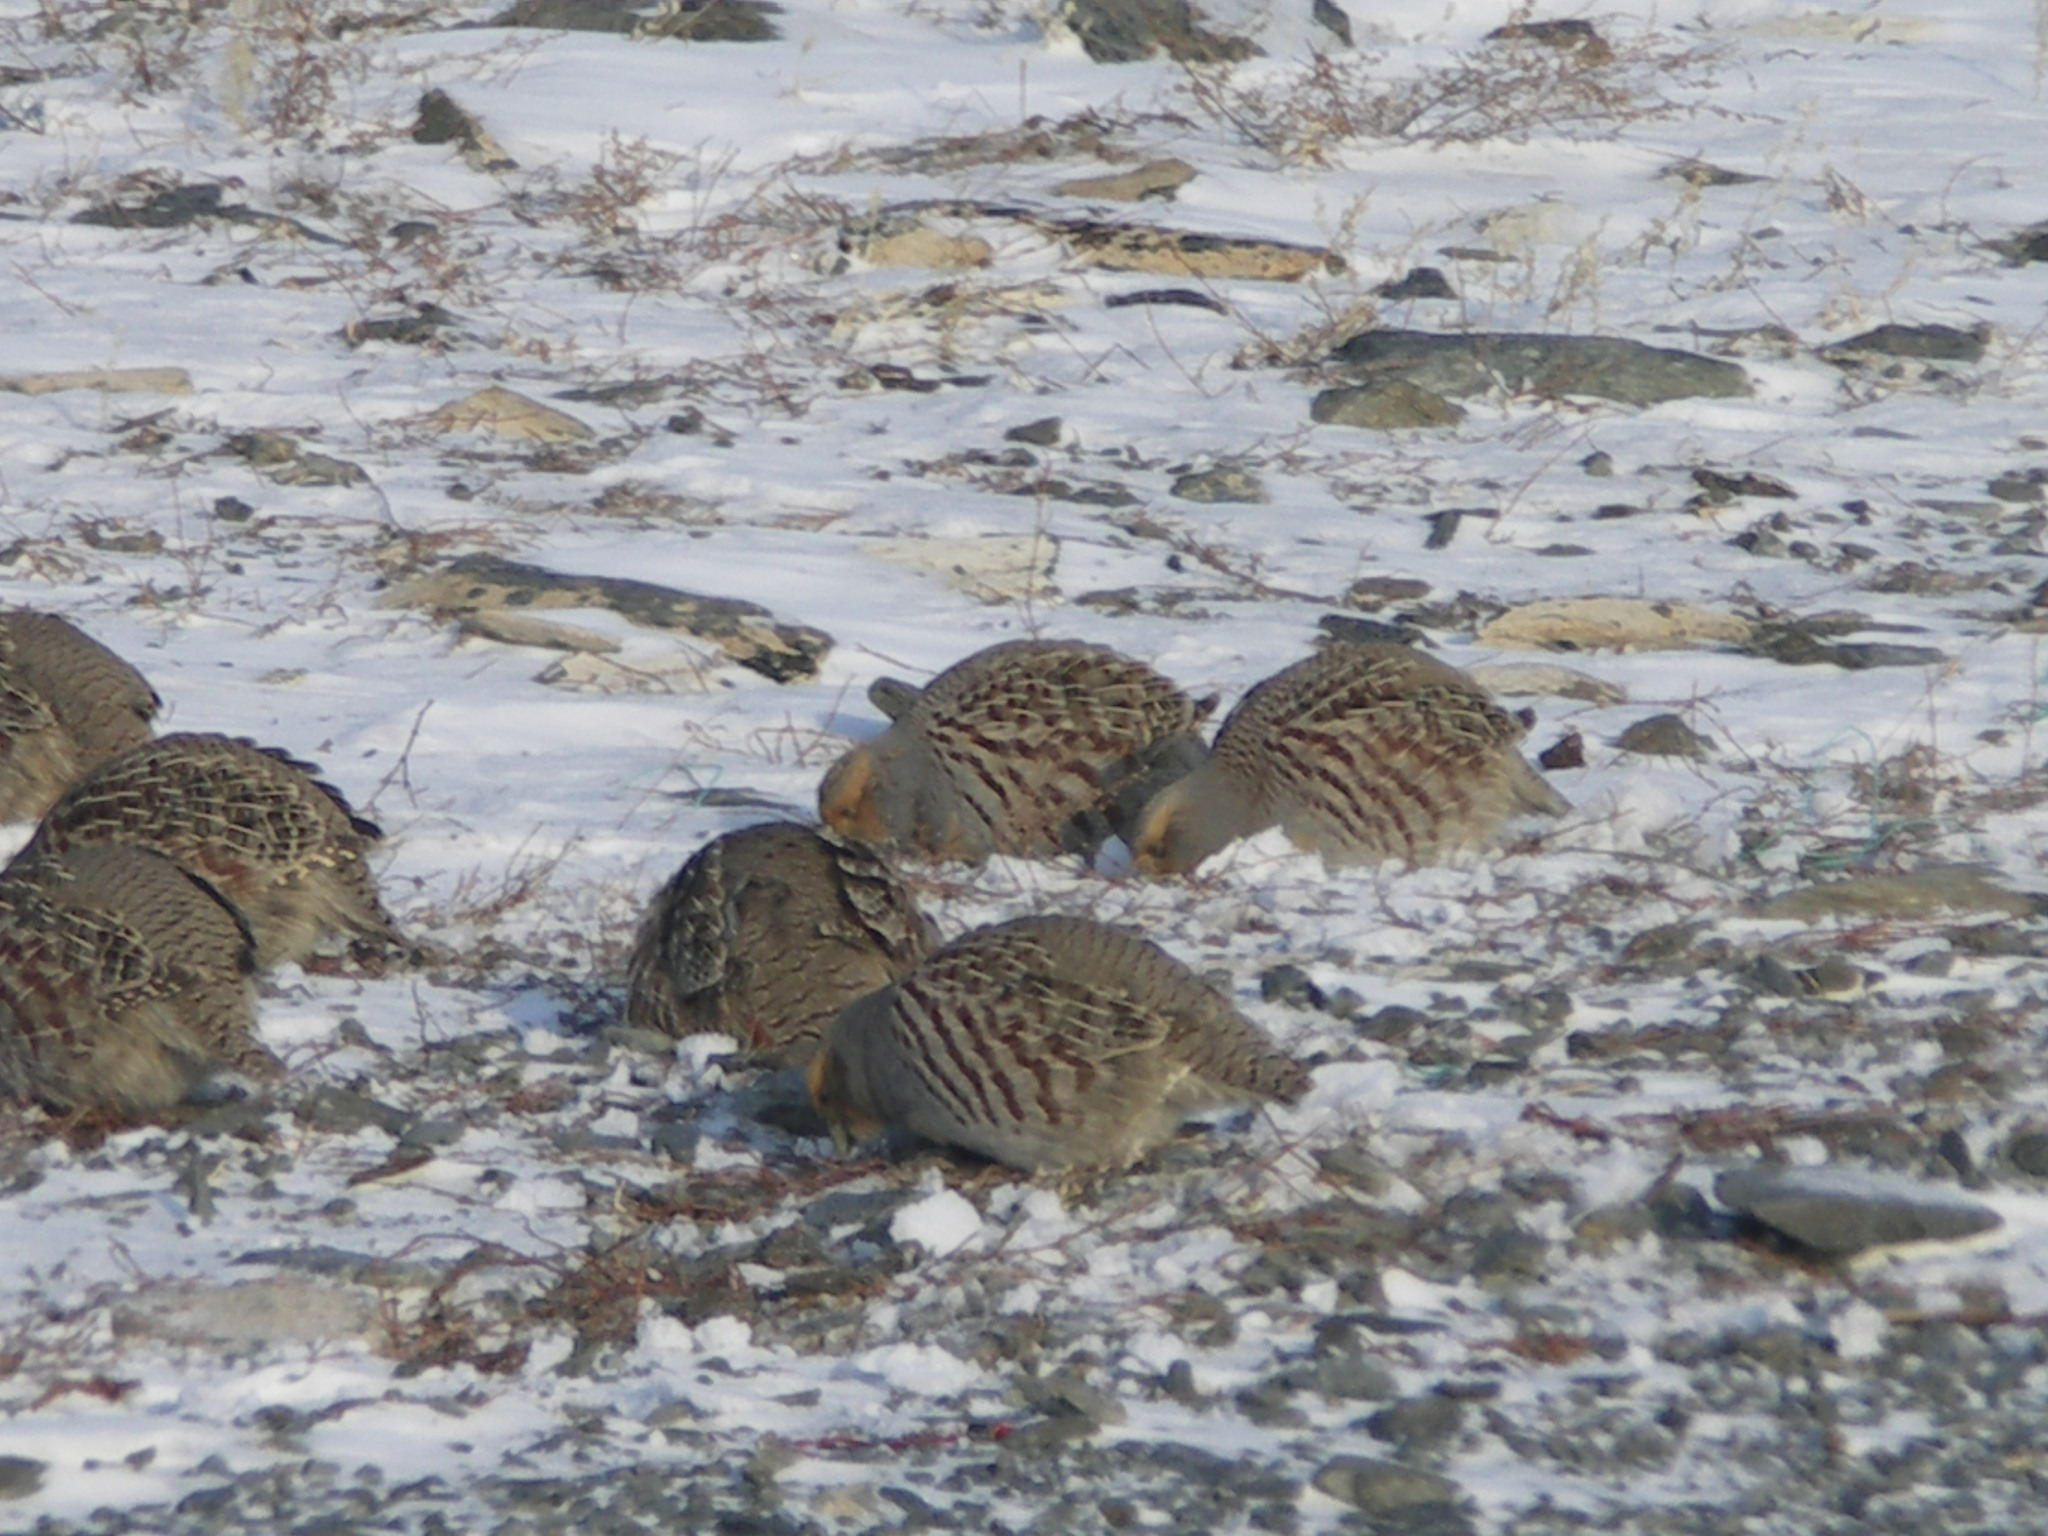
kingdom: Animalia
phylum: Chordata
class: Aves
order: Galliformes
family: Phasianidae
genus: Perdix
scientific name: Perdix dauurica
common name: Daurian partridge
